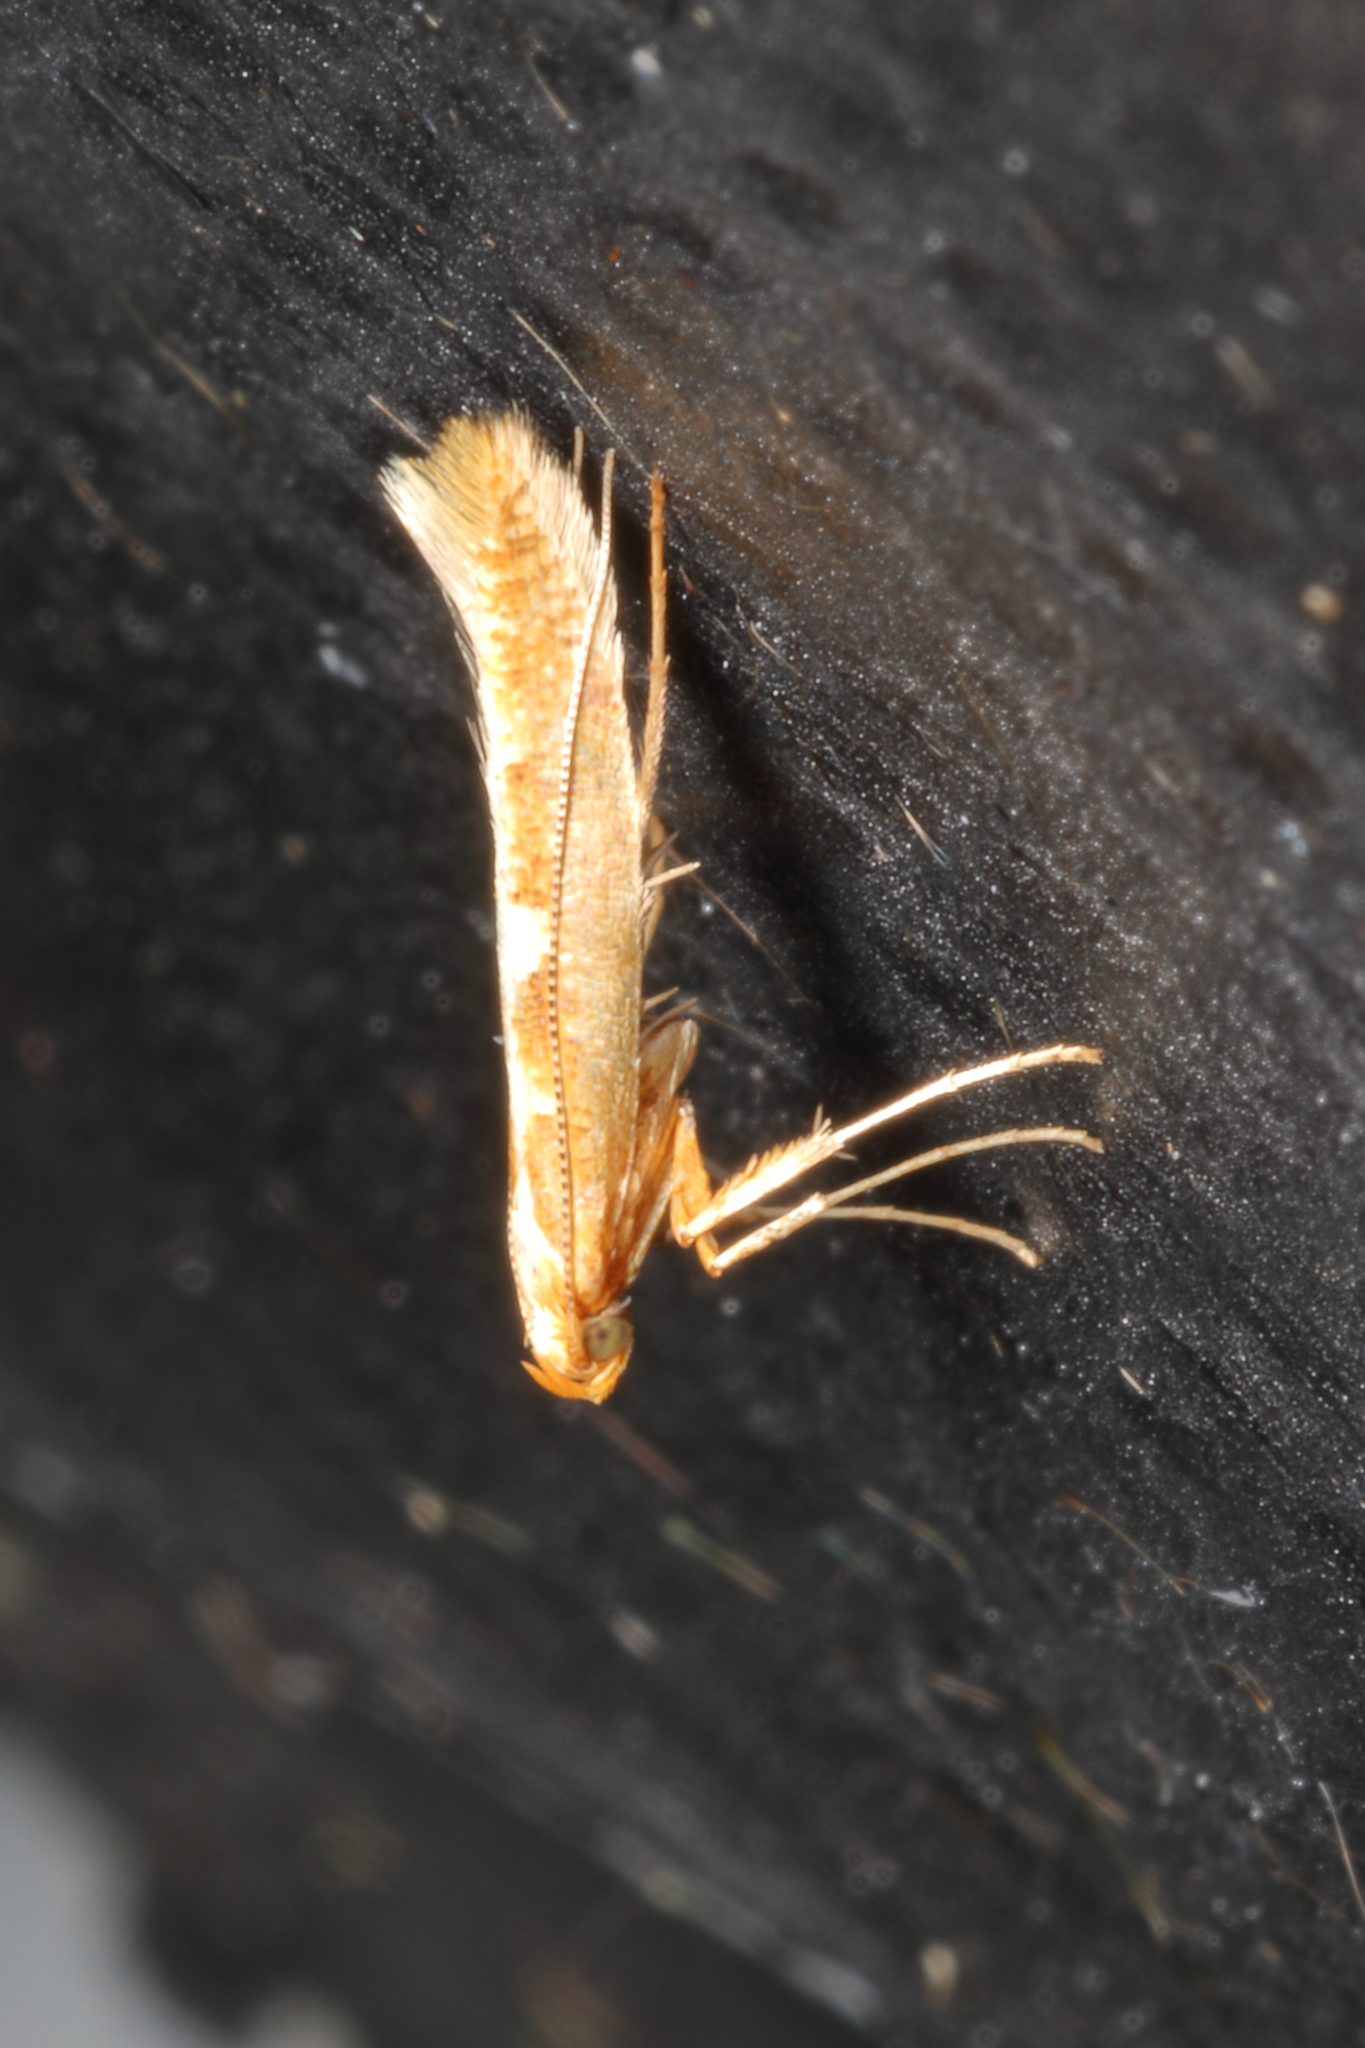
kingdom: Animalia
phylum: Arthropoda
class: Insecta
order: Lepidoptera
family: Gracillariidae
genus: Caloptilia
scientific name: Caloptilia selenitis
